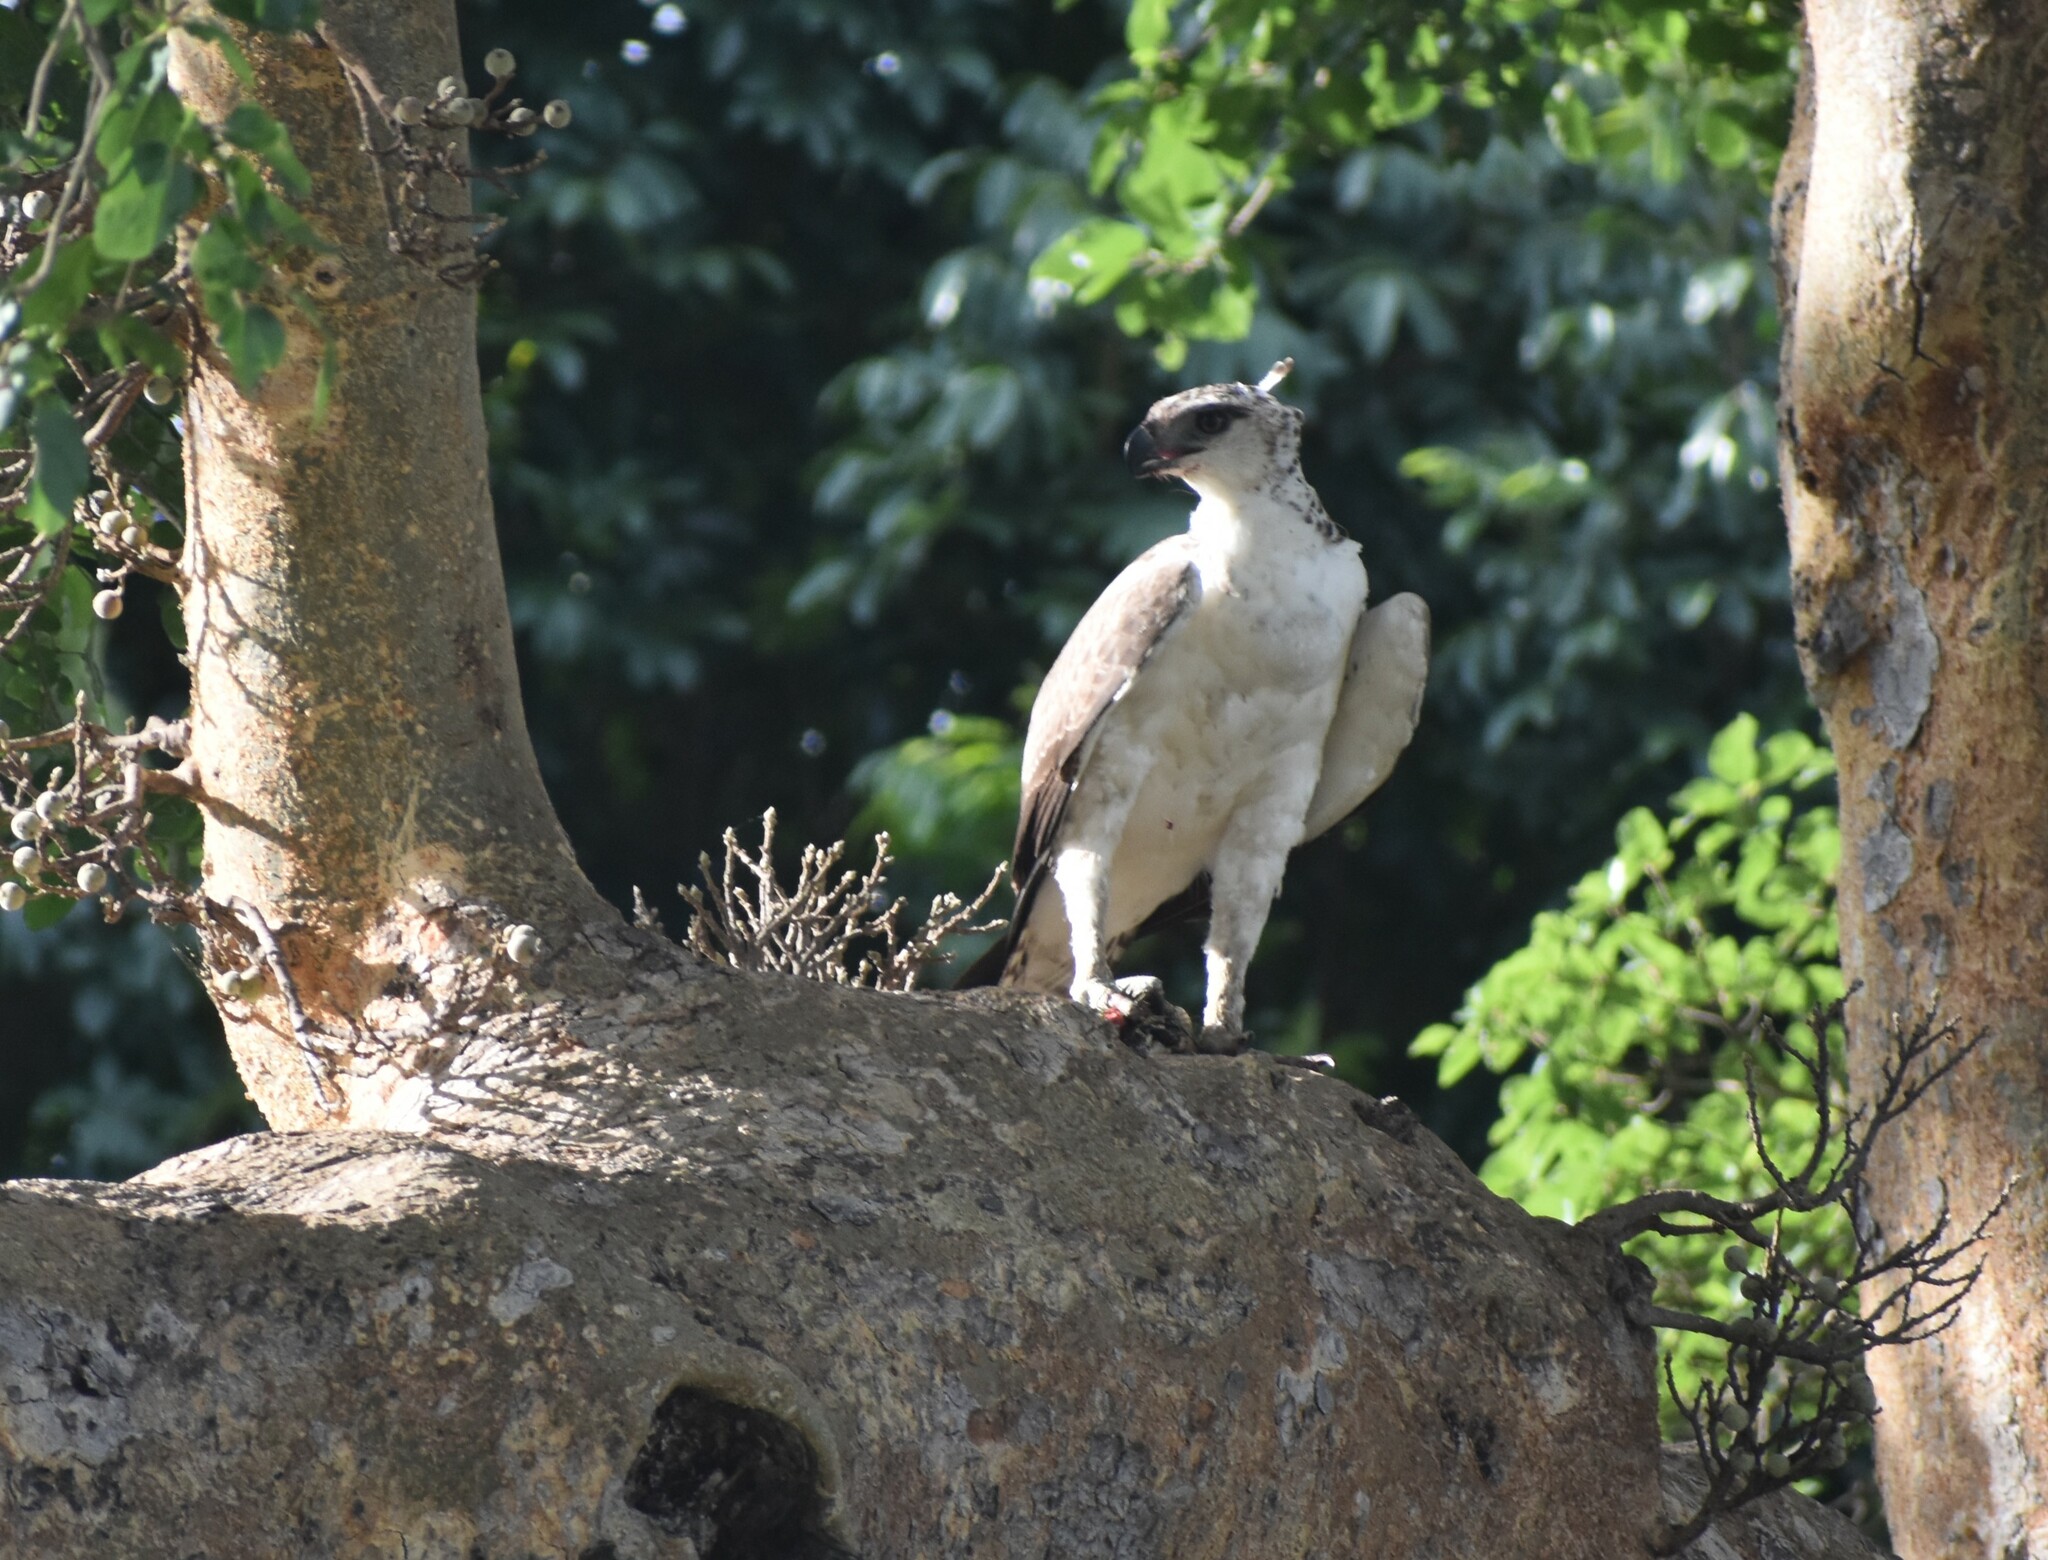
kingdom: Animalia
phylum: Chordata
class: Aves
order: Accipitriformes
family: Accipitridae
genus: Polemaetus
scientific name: Polemaetus bellicosus
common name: Martial eagle
